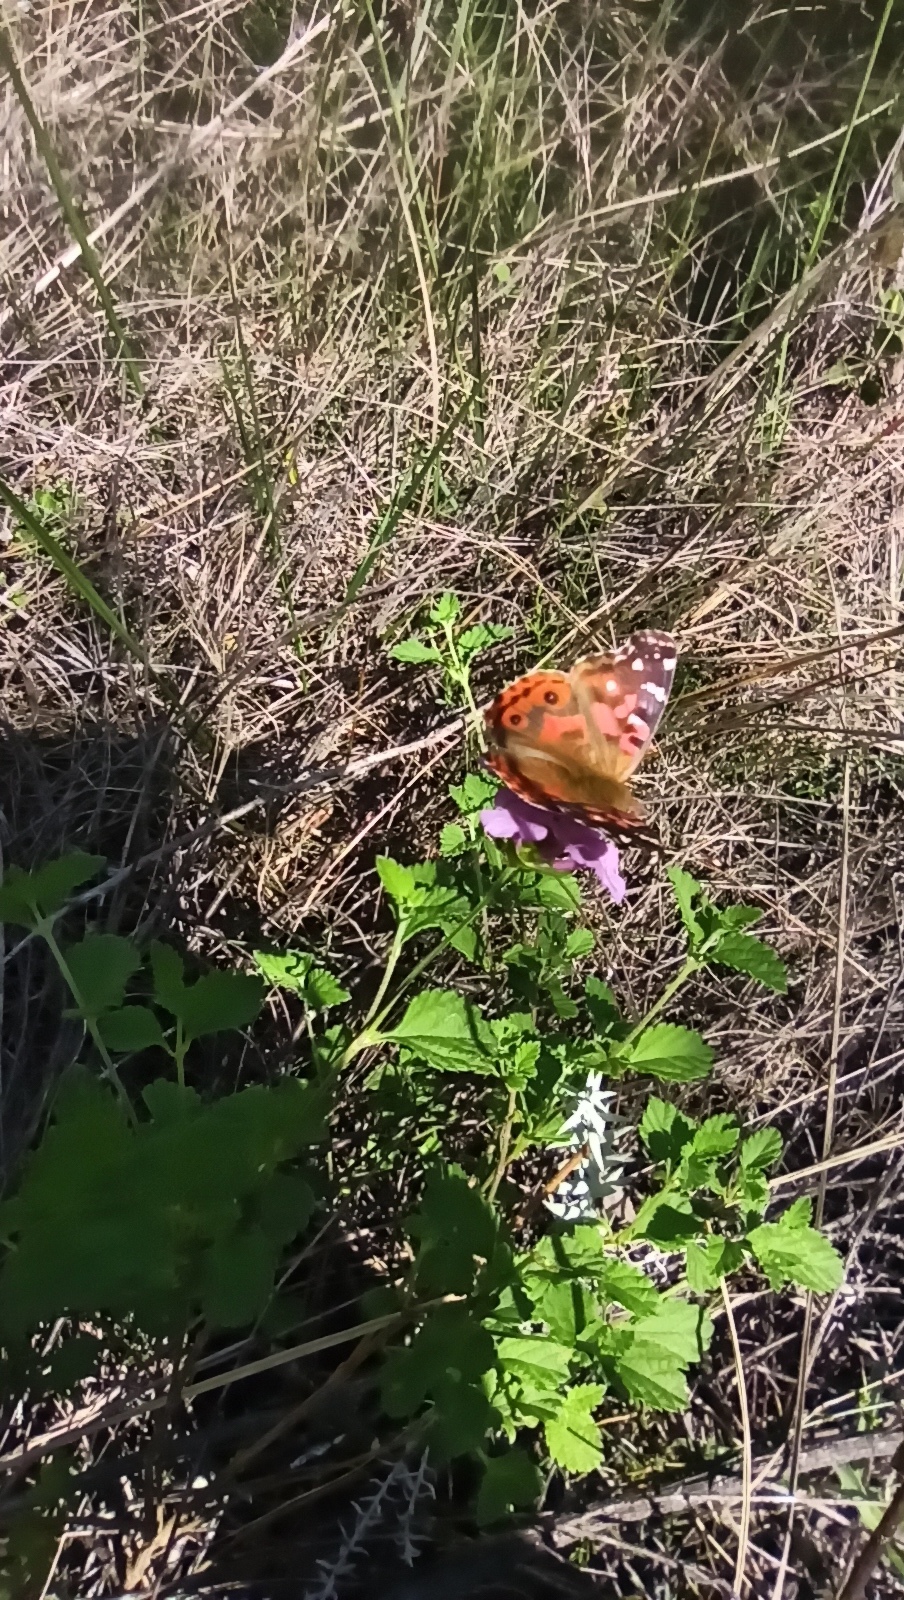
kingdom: Animalia
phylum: Arthropoda
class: Insecta
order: Lepidoptera
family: Nymphalidae
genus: Vanessa
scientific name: Vanessa braziliensis
